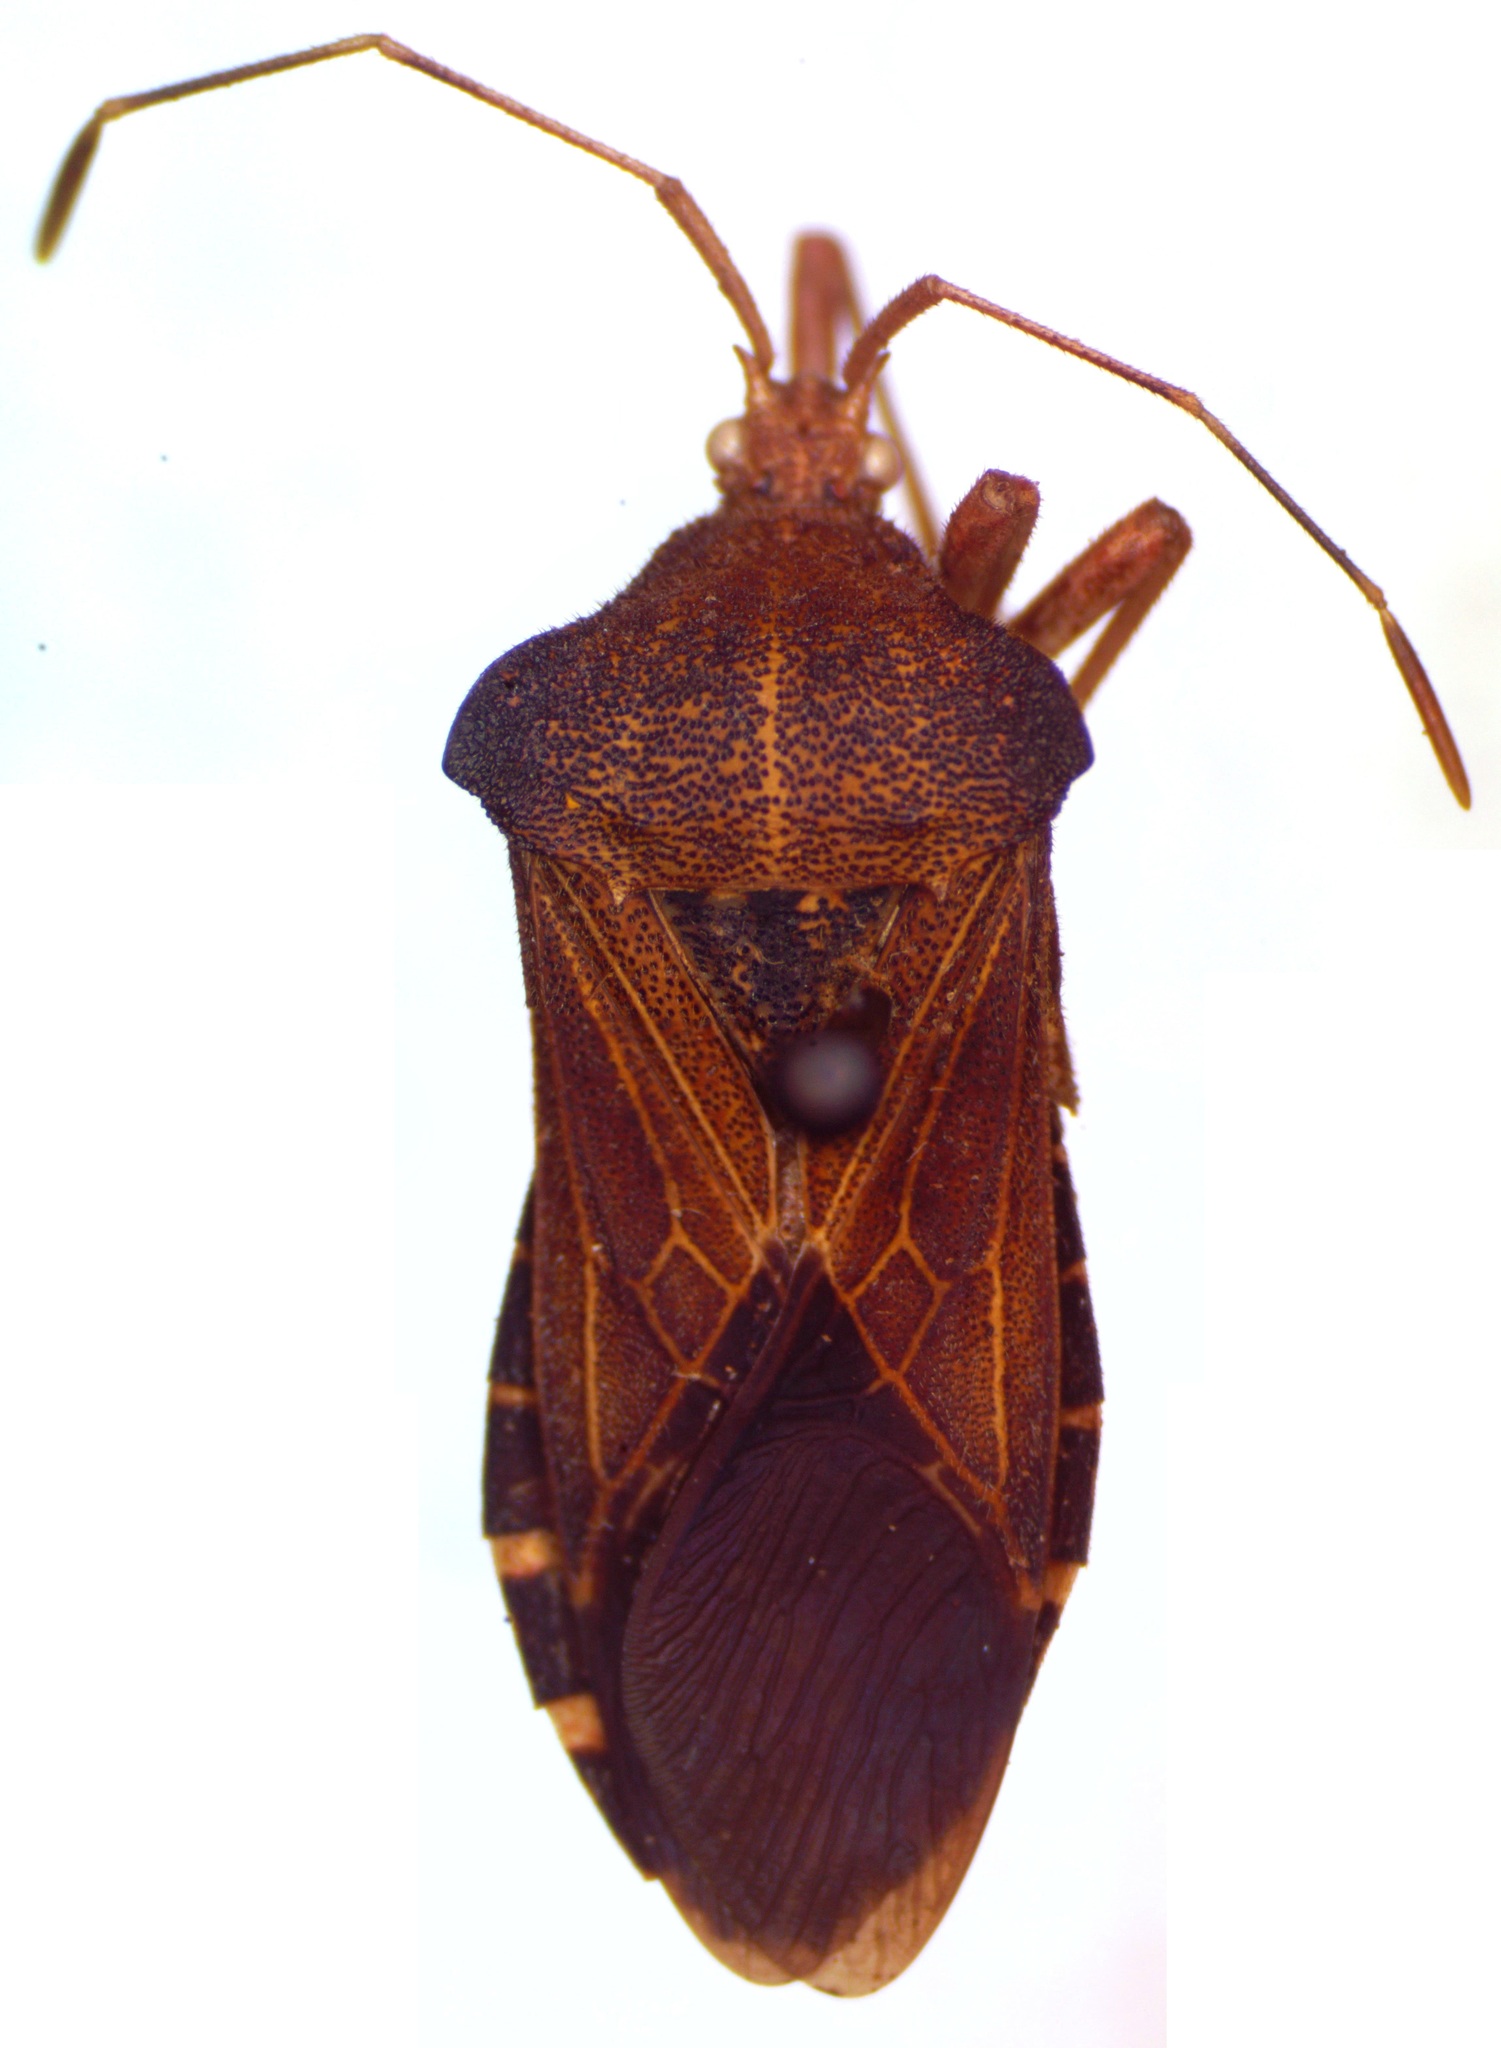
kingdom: Animalia
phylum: Arthropoda
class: Insecta
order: Hemiptera
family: Coreidae
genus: Anasa
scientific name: Anasa scorbutica
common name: Squash bug
